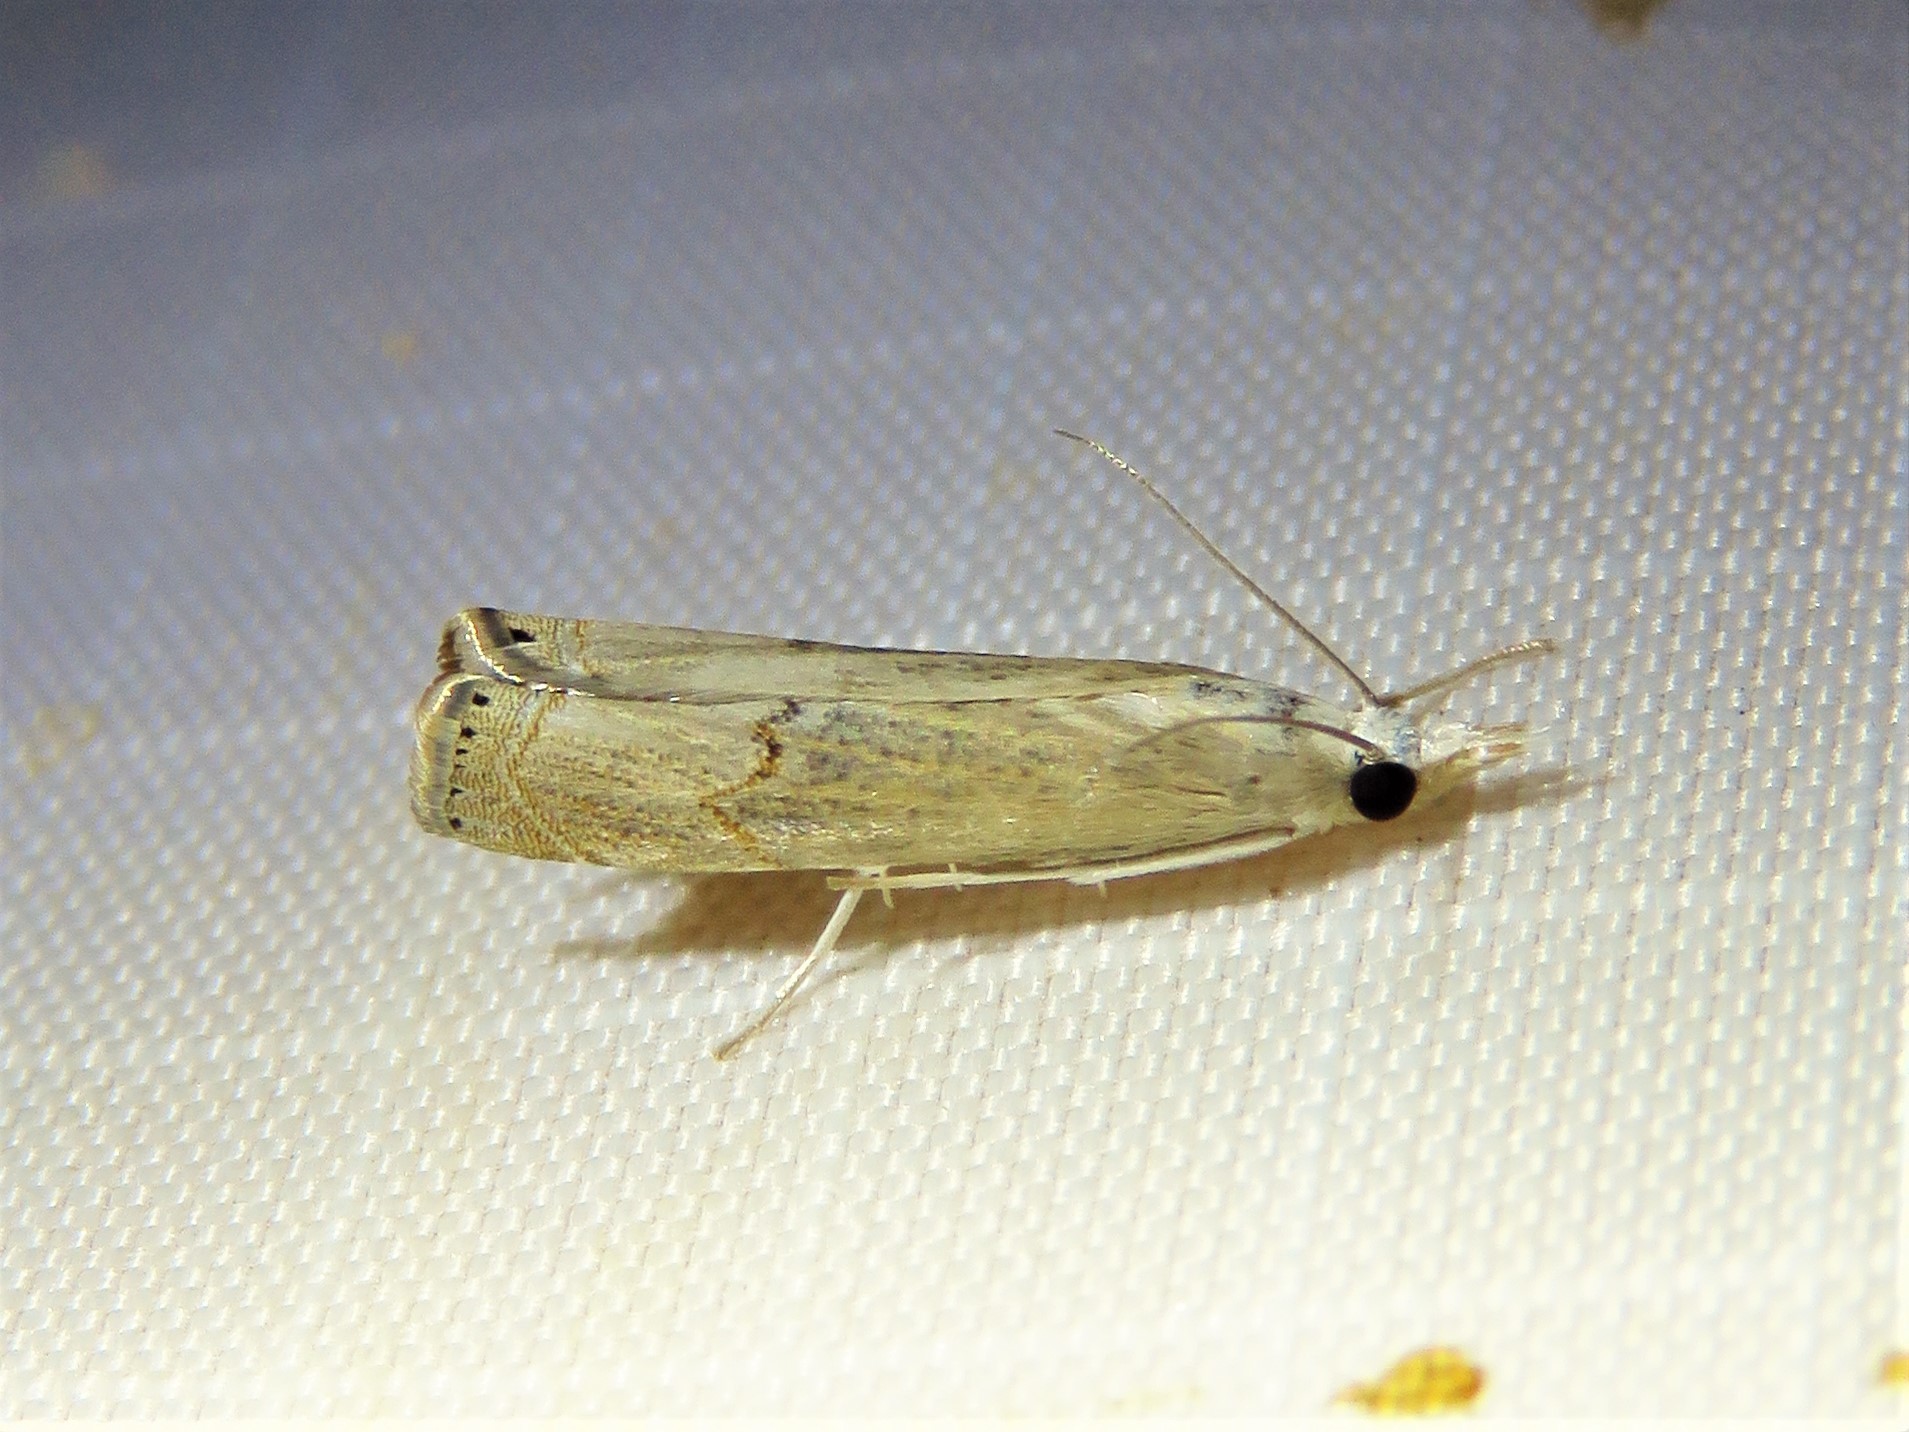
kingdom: Animalia
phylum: Arthropoda
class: Insecta
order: Lepidoptera
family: Crambidae
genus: Parapediasia
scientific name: Parapediasia teterellus
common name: Bluegrass webworm moth
